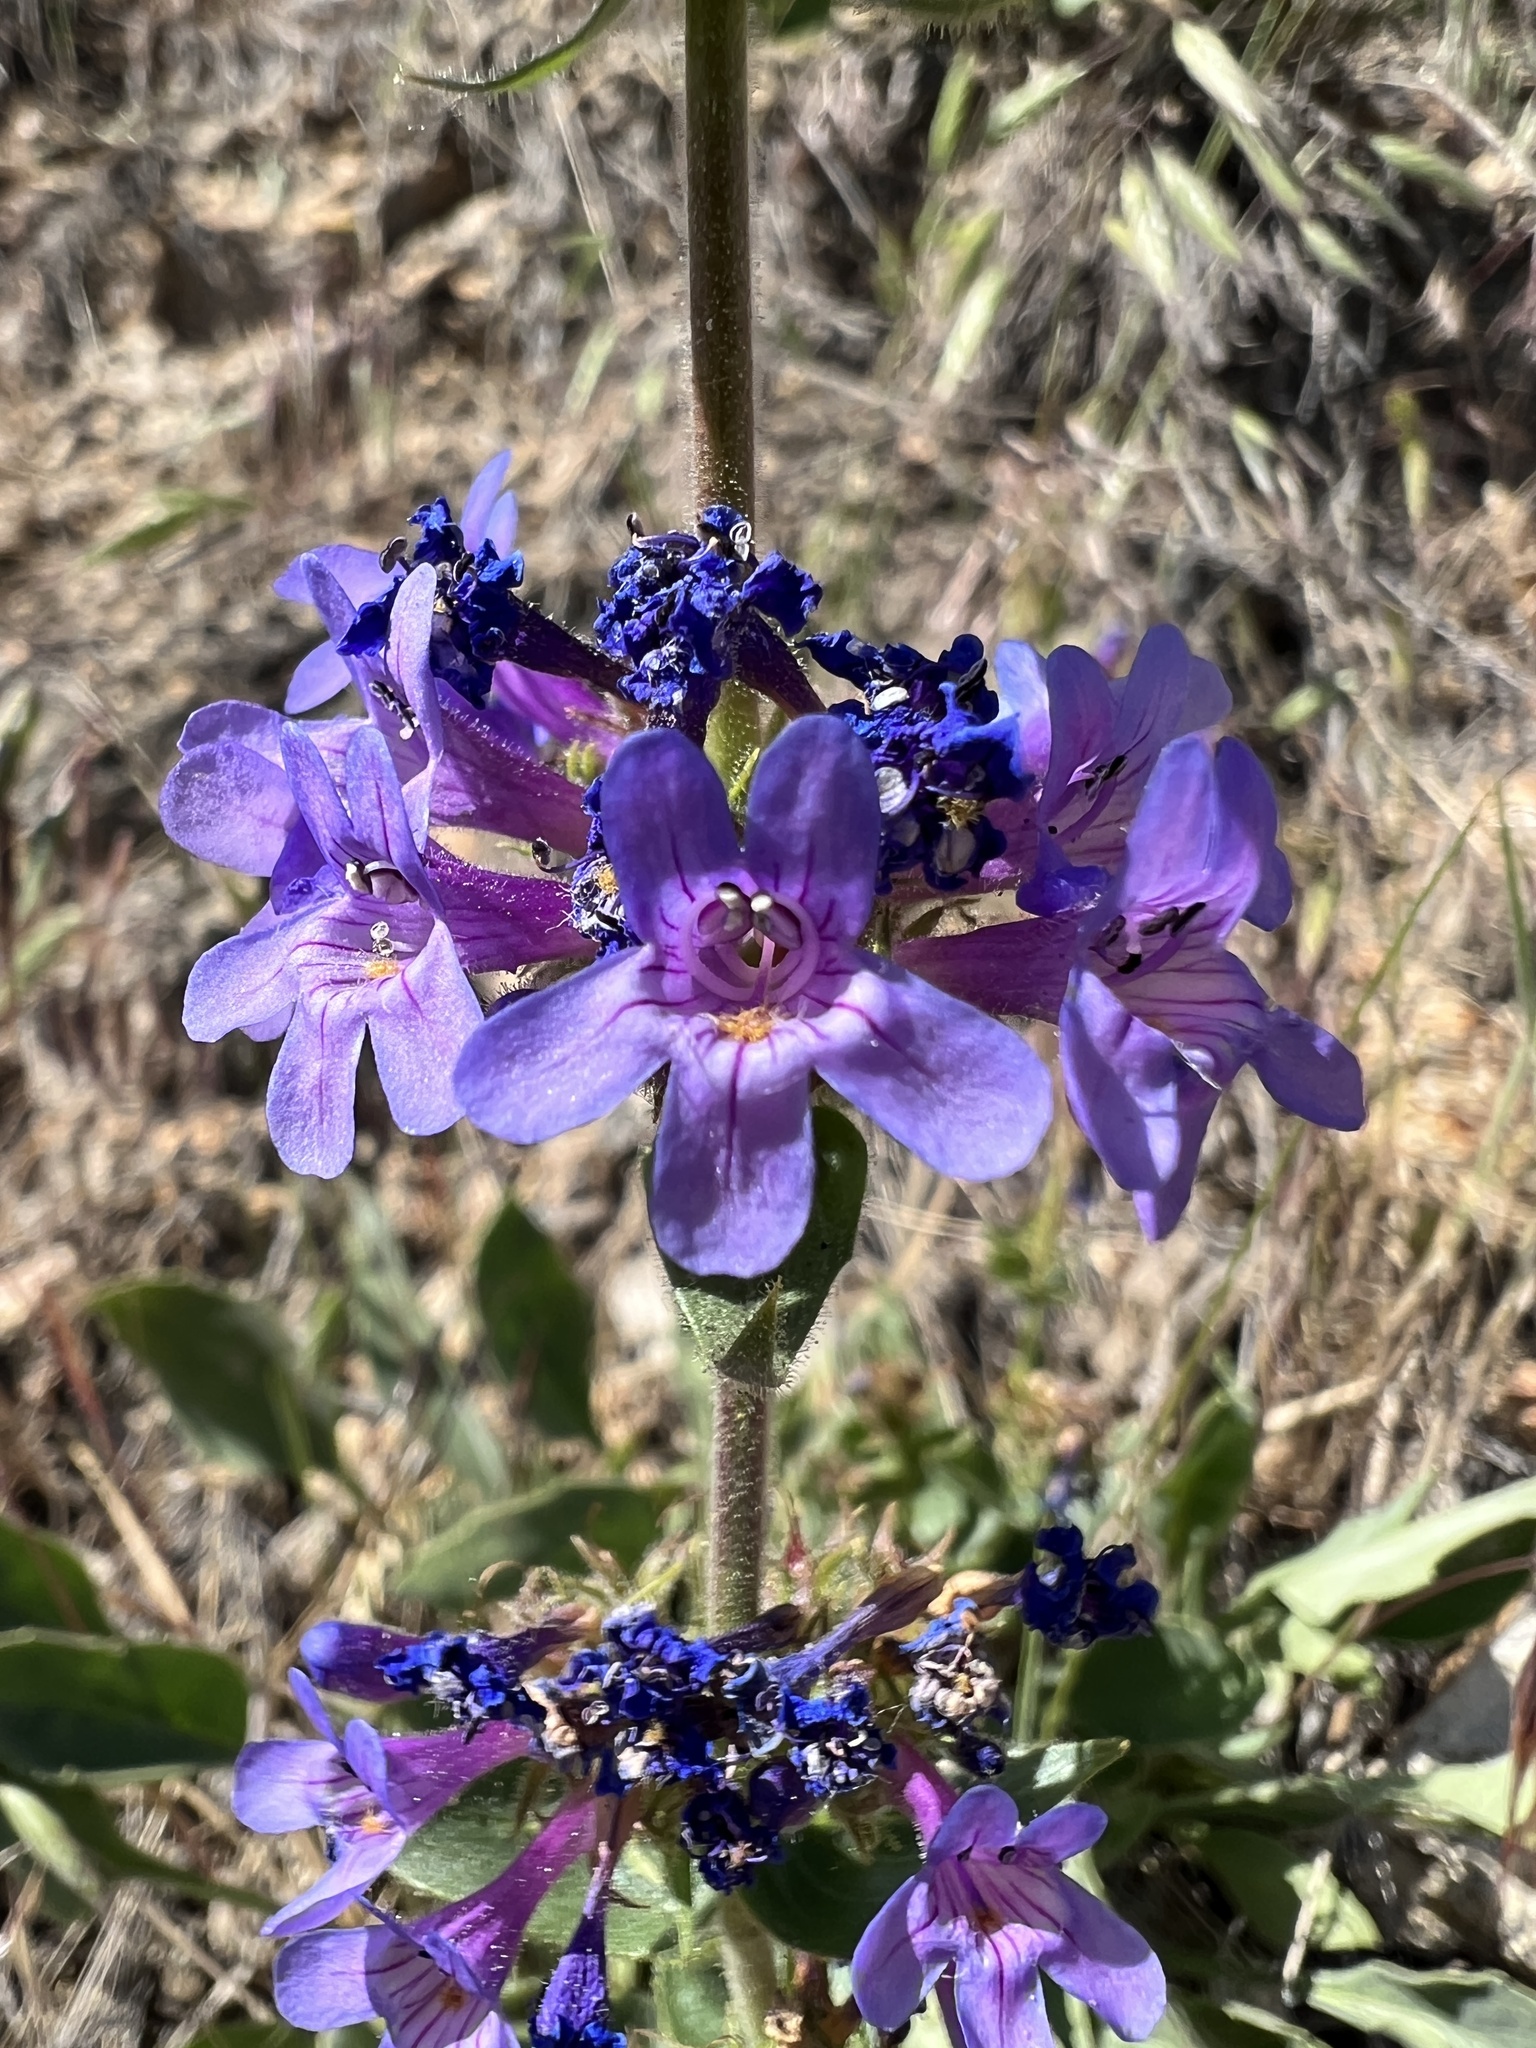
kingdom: Plantae
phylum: Tracheophyta
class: Magnoliopsida
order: Lamiales
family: Plantaginaceae
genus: Penstemon
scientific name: Penstemon pruinosus
